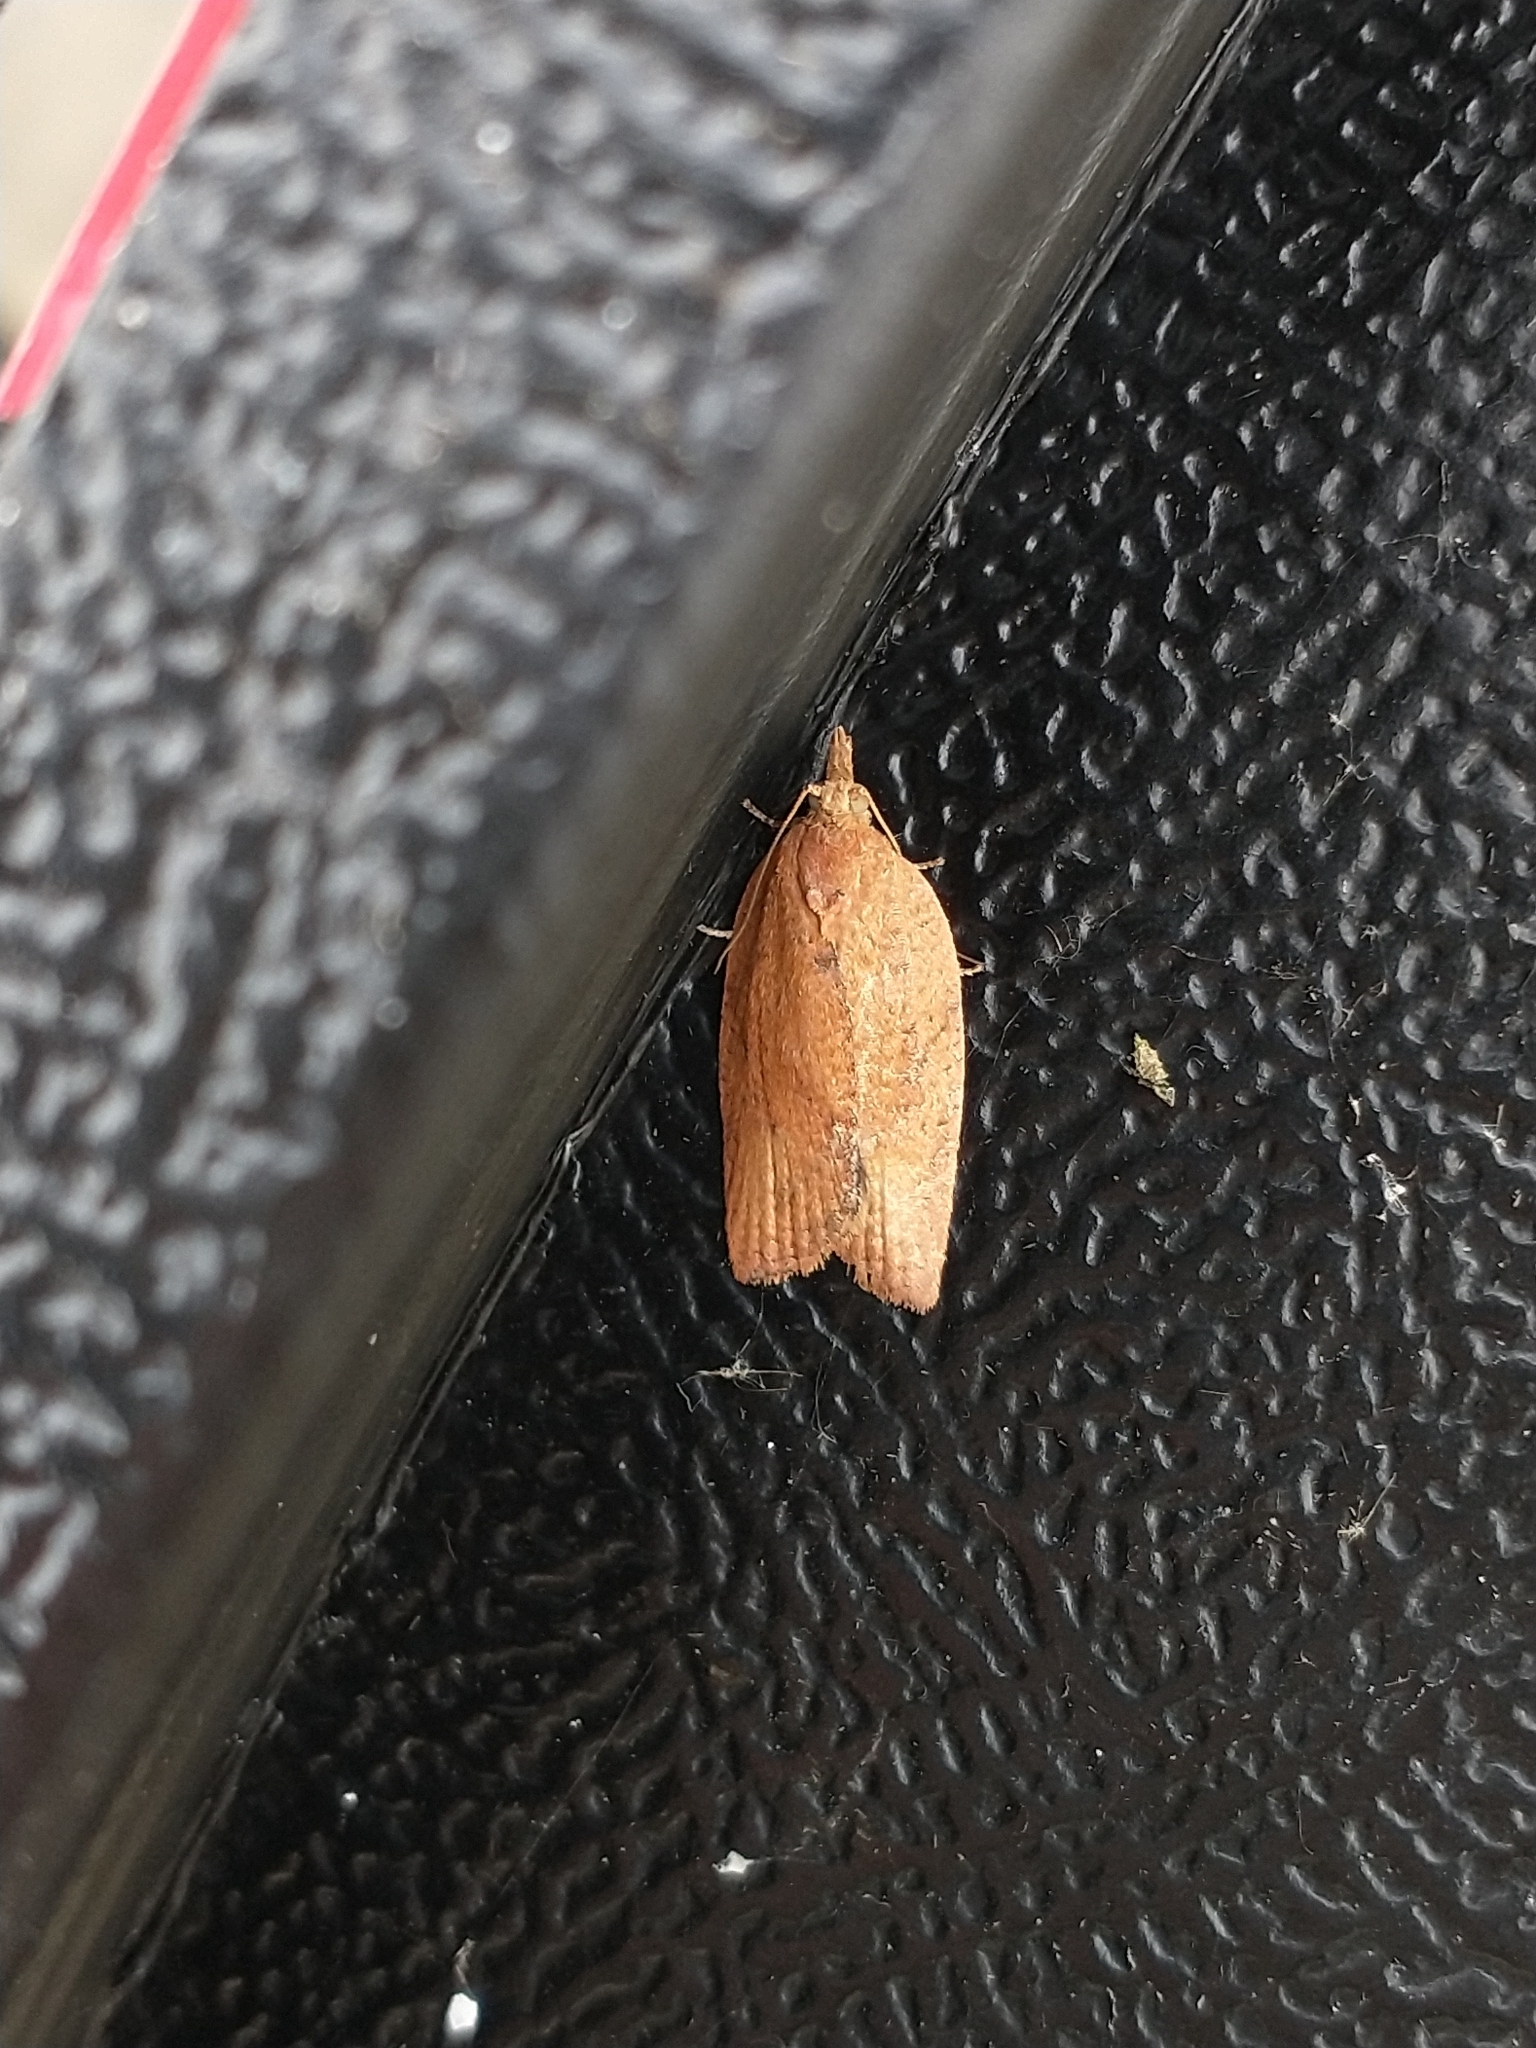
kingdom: Animalia
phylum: Arthropoda
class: Insecta
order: Lepidoptera
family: Tortricidae
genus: Epiphyas
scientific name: Epiphyas postvittana
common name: Light brown apple moth
